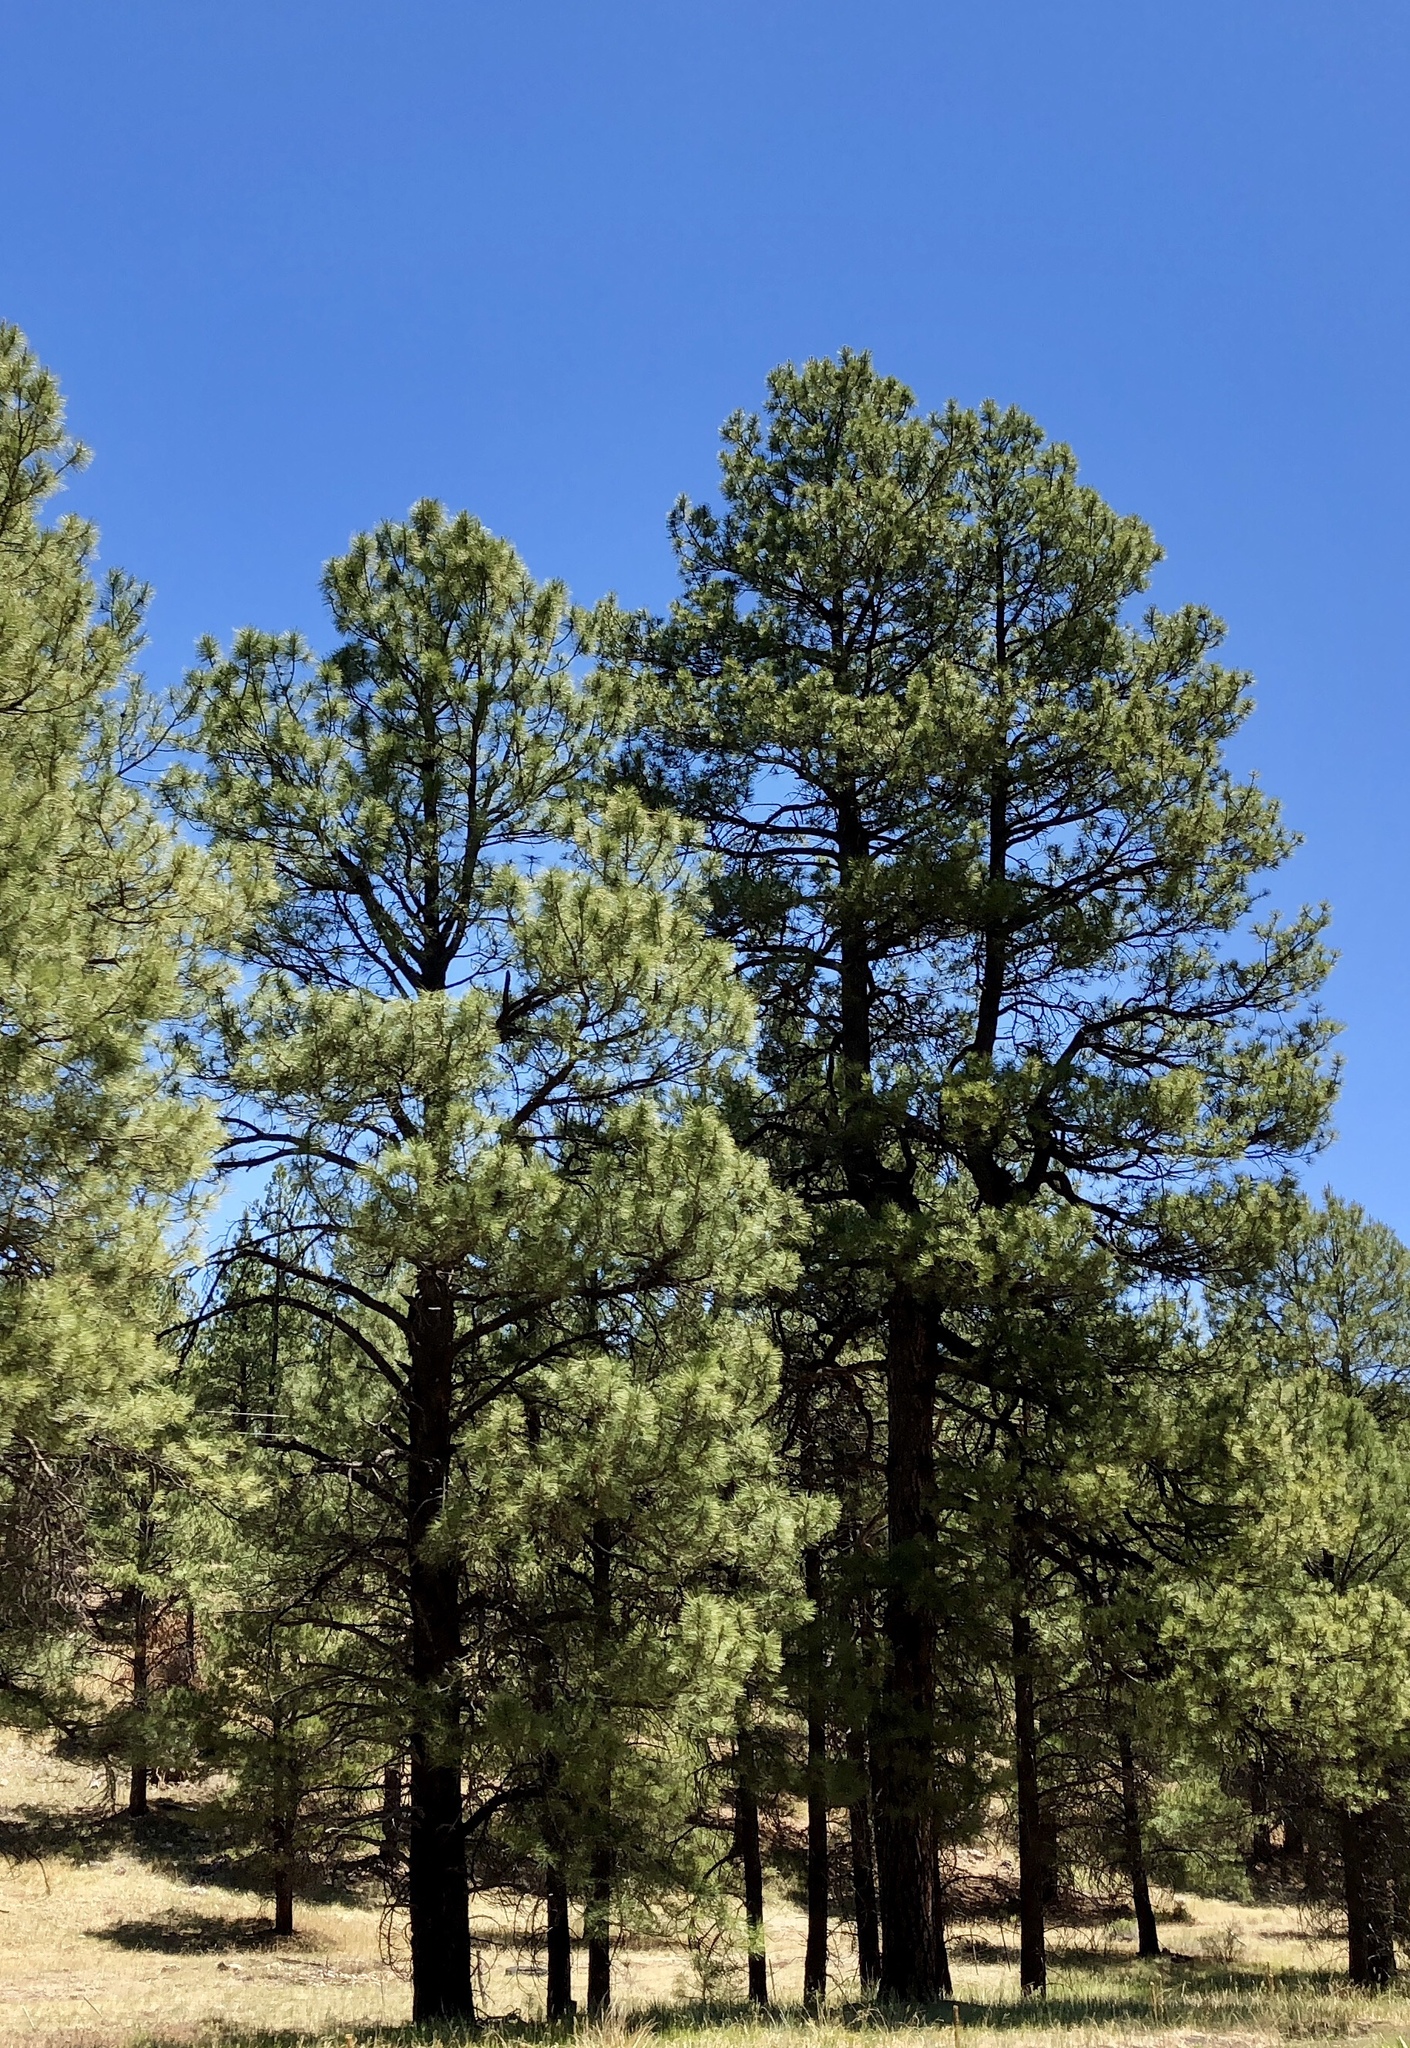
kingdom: Plantae
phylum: Tracheophyta
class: Pinopsida
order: Pinales
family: Pinaceae
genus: Pinus
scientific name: Pinus ponderosa
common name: Western yellow-pine
